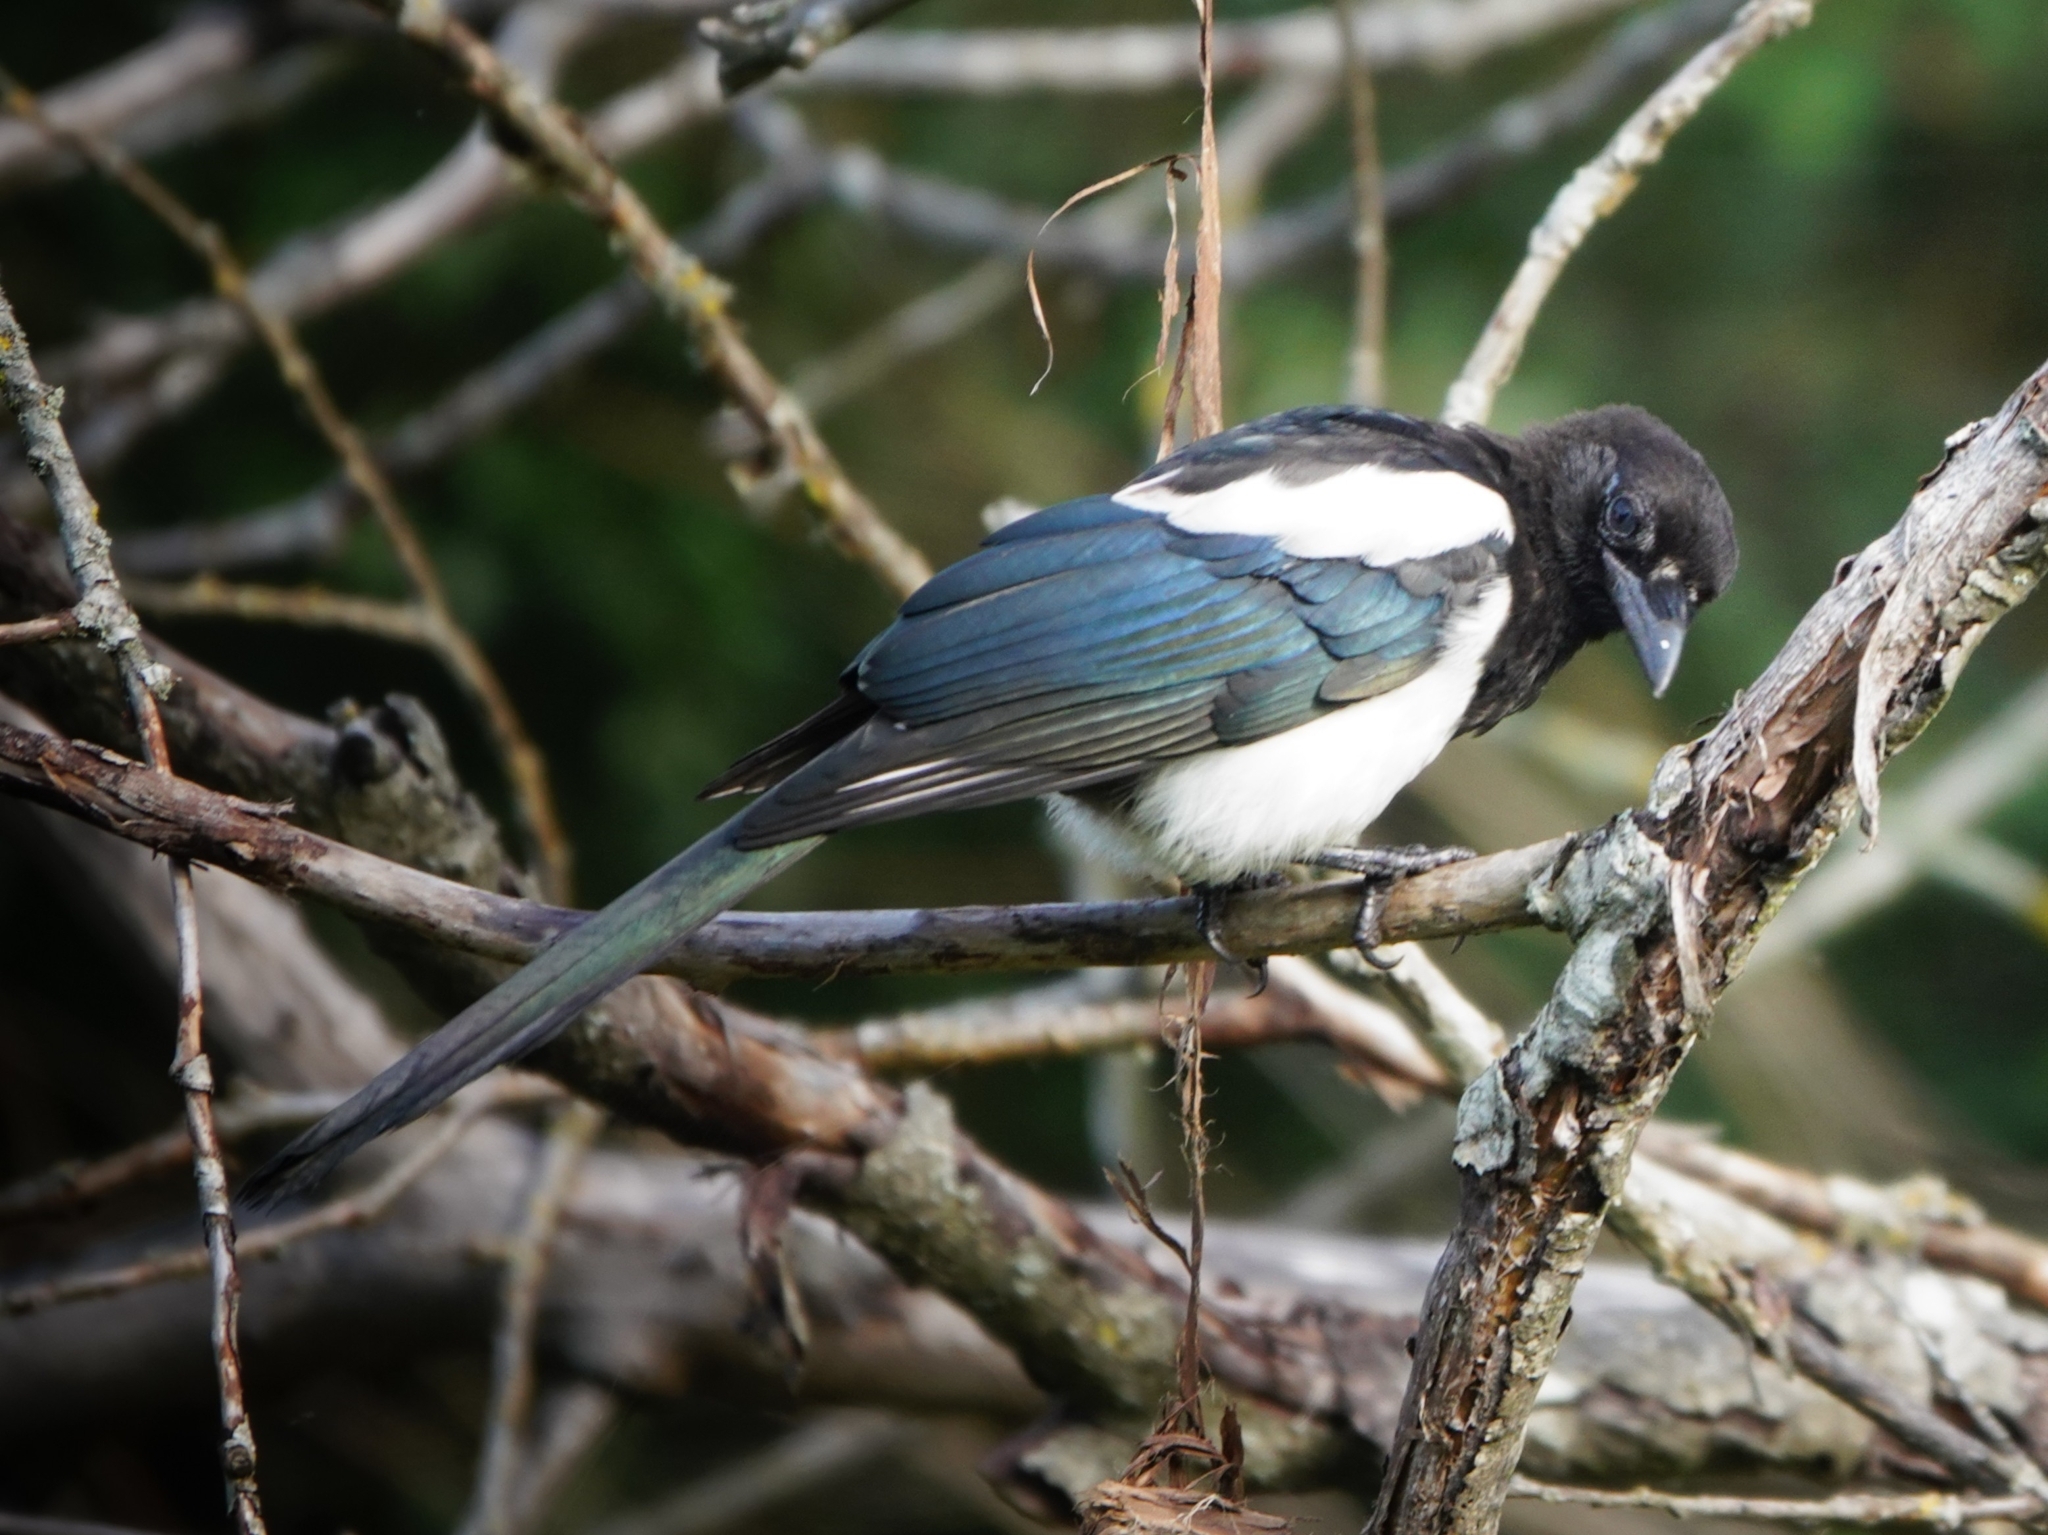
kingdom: Animalia
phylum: Chordata
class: Aves
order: Passeriformes
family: Corvidae
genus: Pica
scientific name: Pica pica
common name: Eurasian magpie
